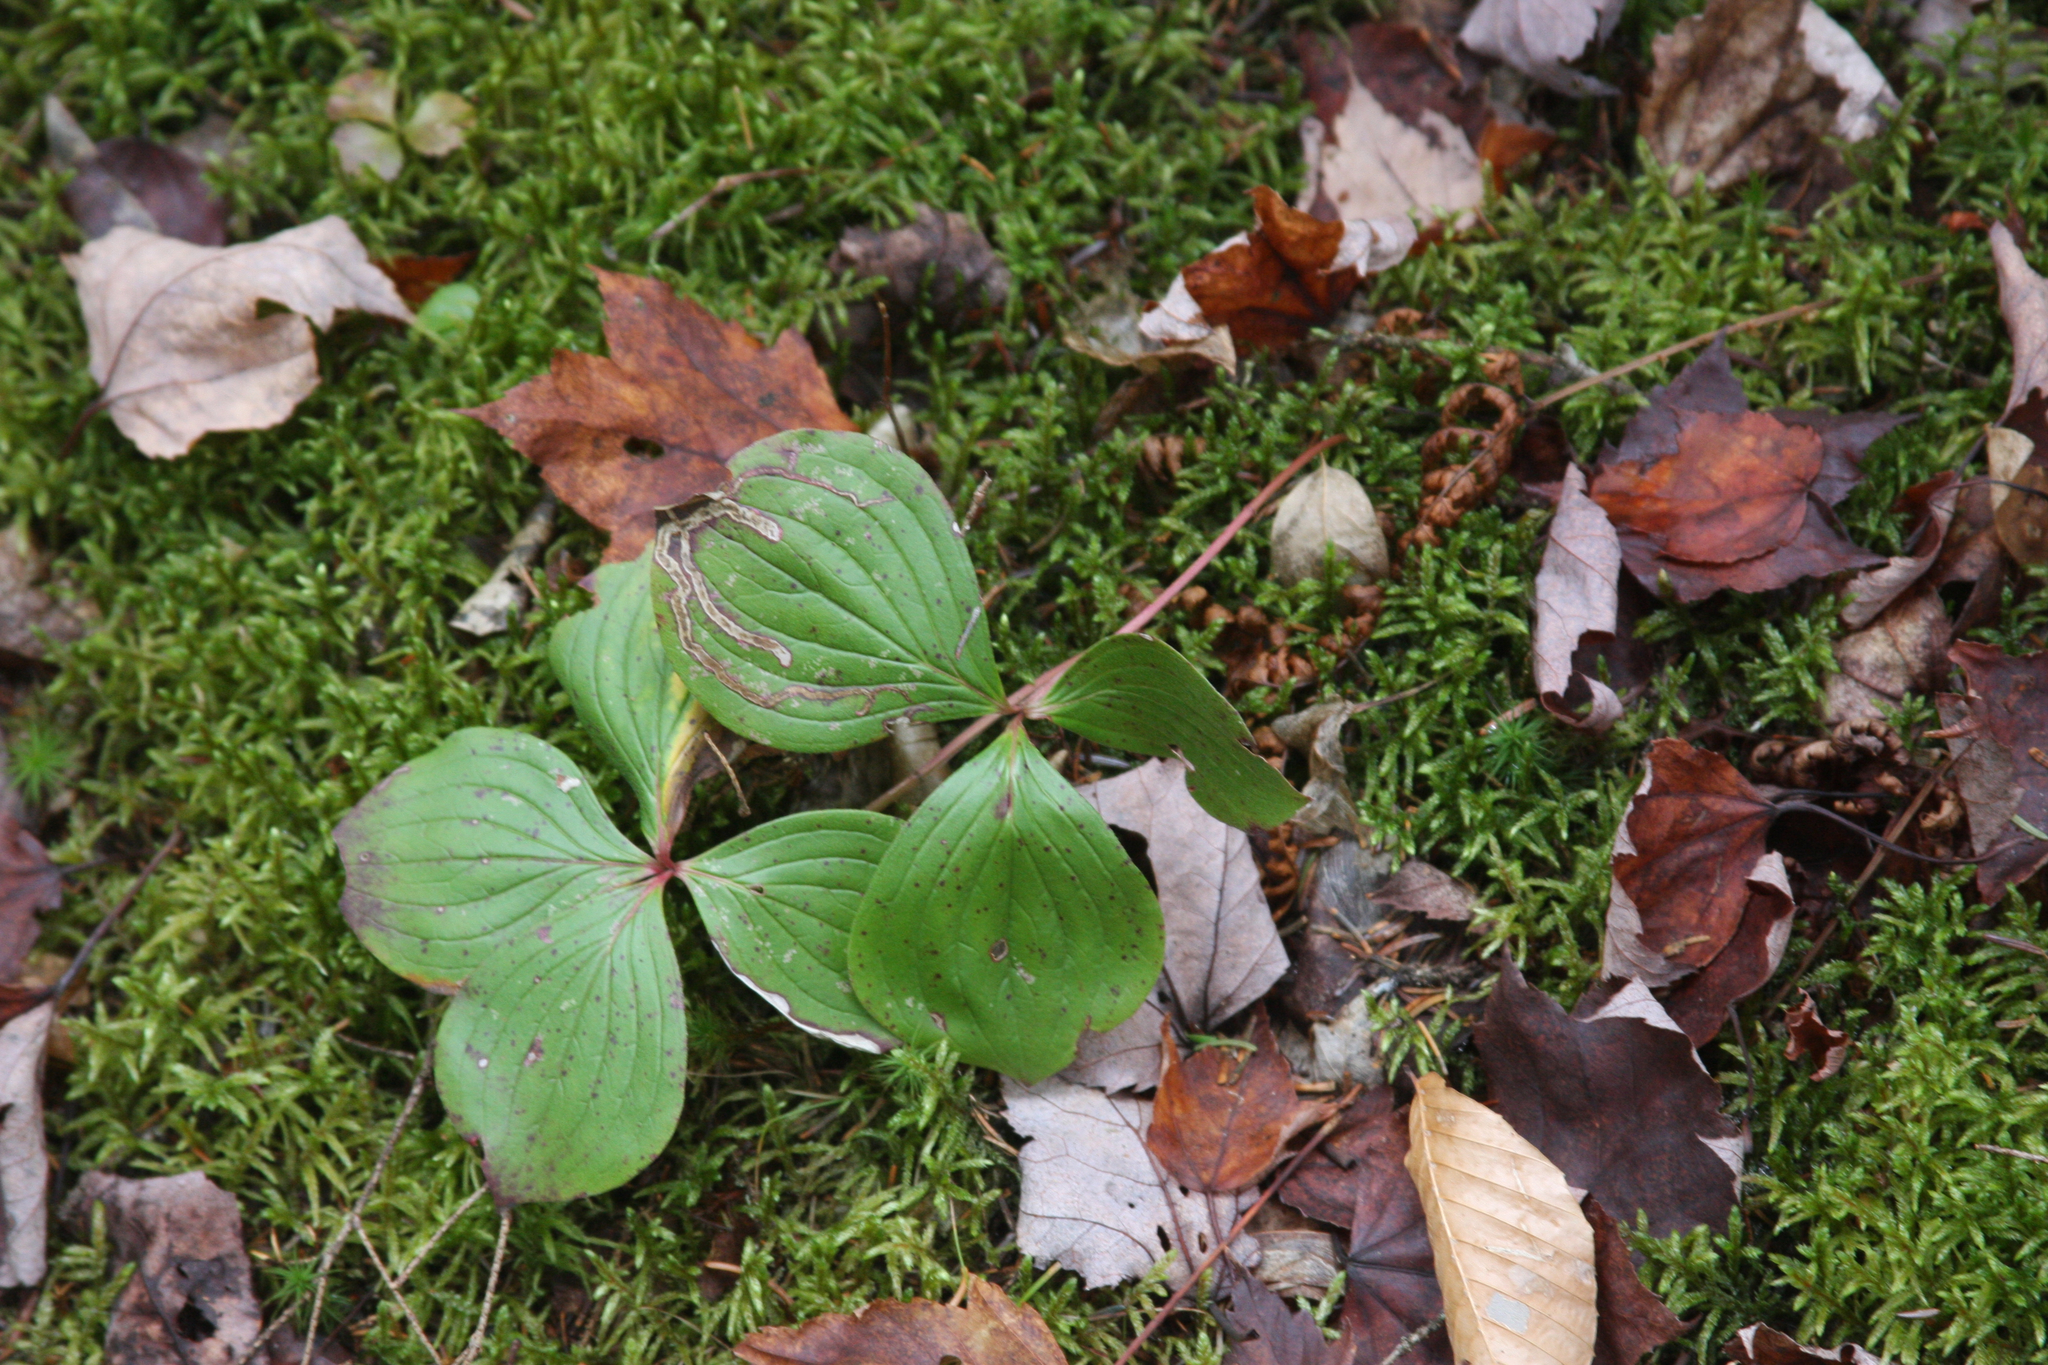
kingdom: Plantae
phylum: Tracheophyta
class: Magnoliopsida
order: Cornales
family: Cornaceae
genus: Cornus
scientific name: Cornus canadensis
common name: Creeping dogwood
